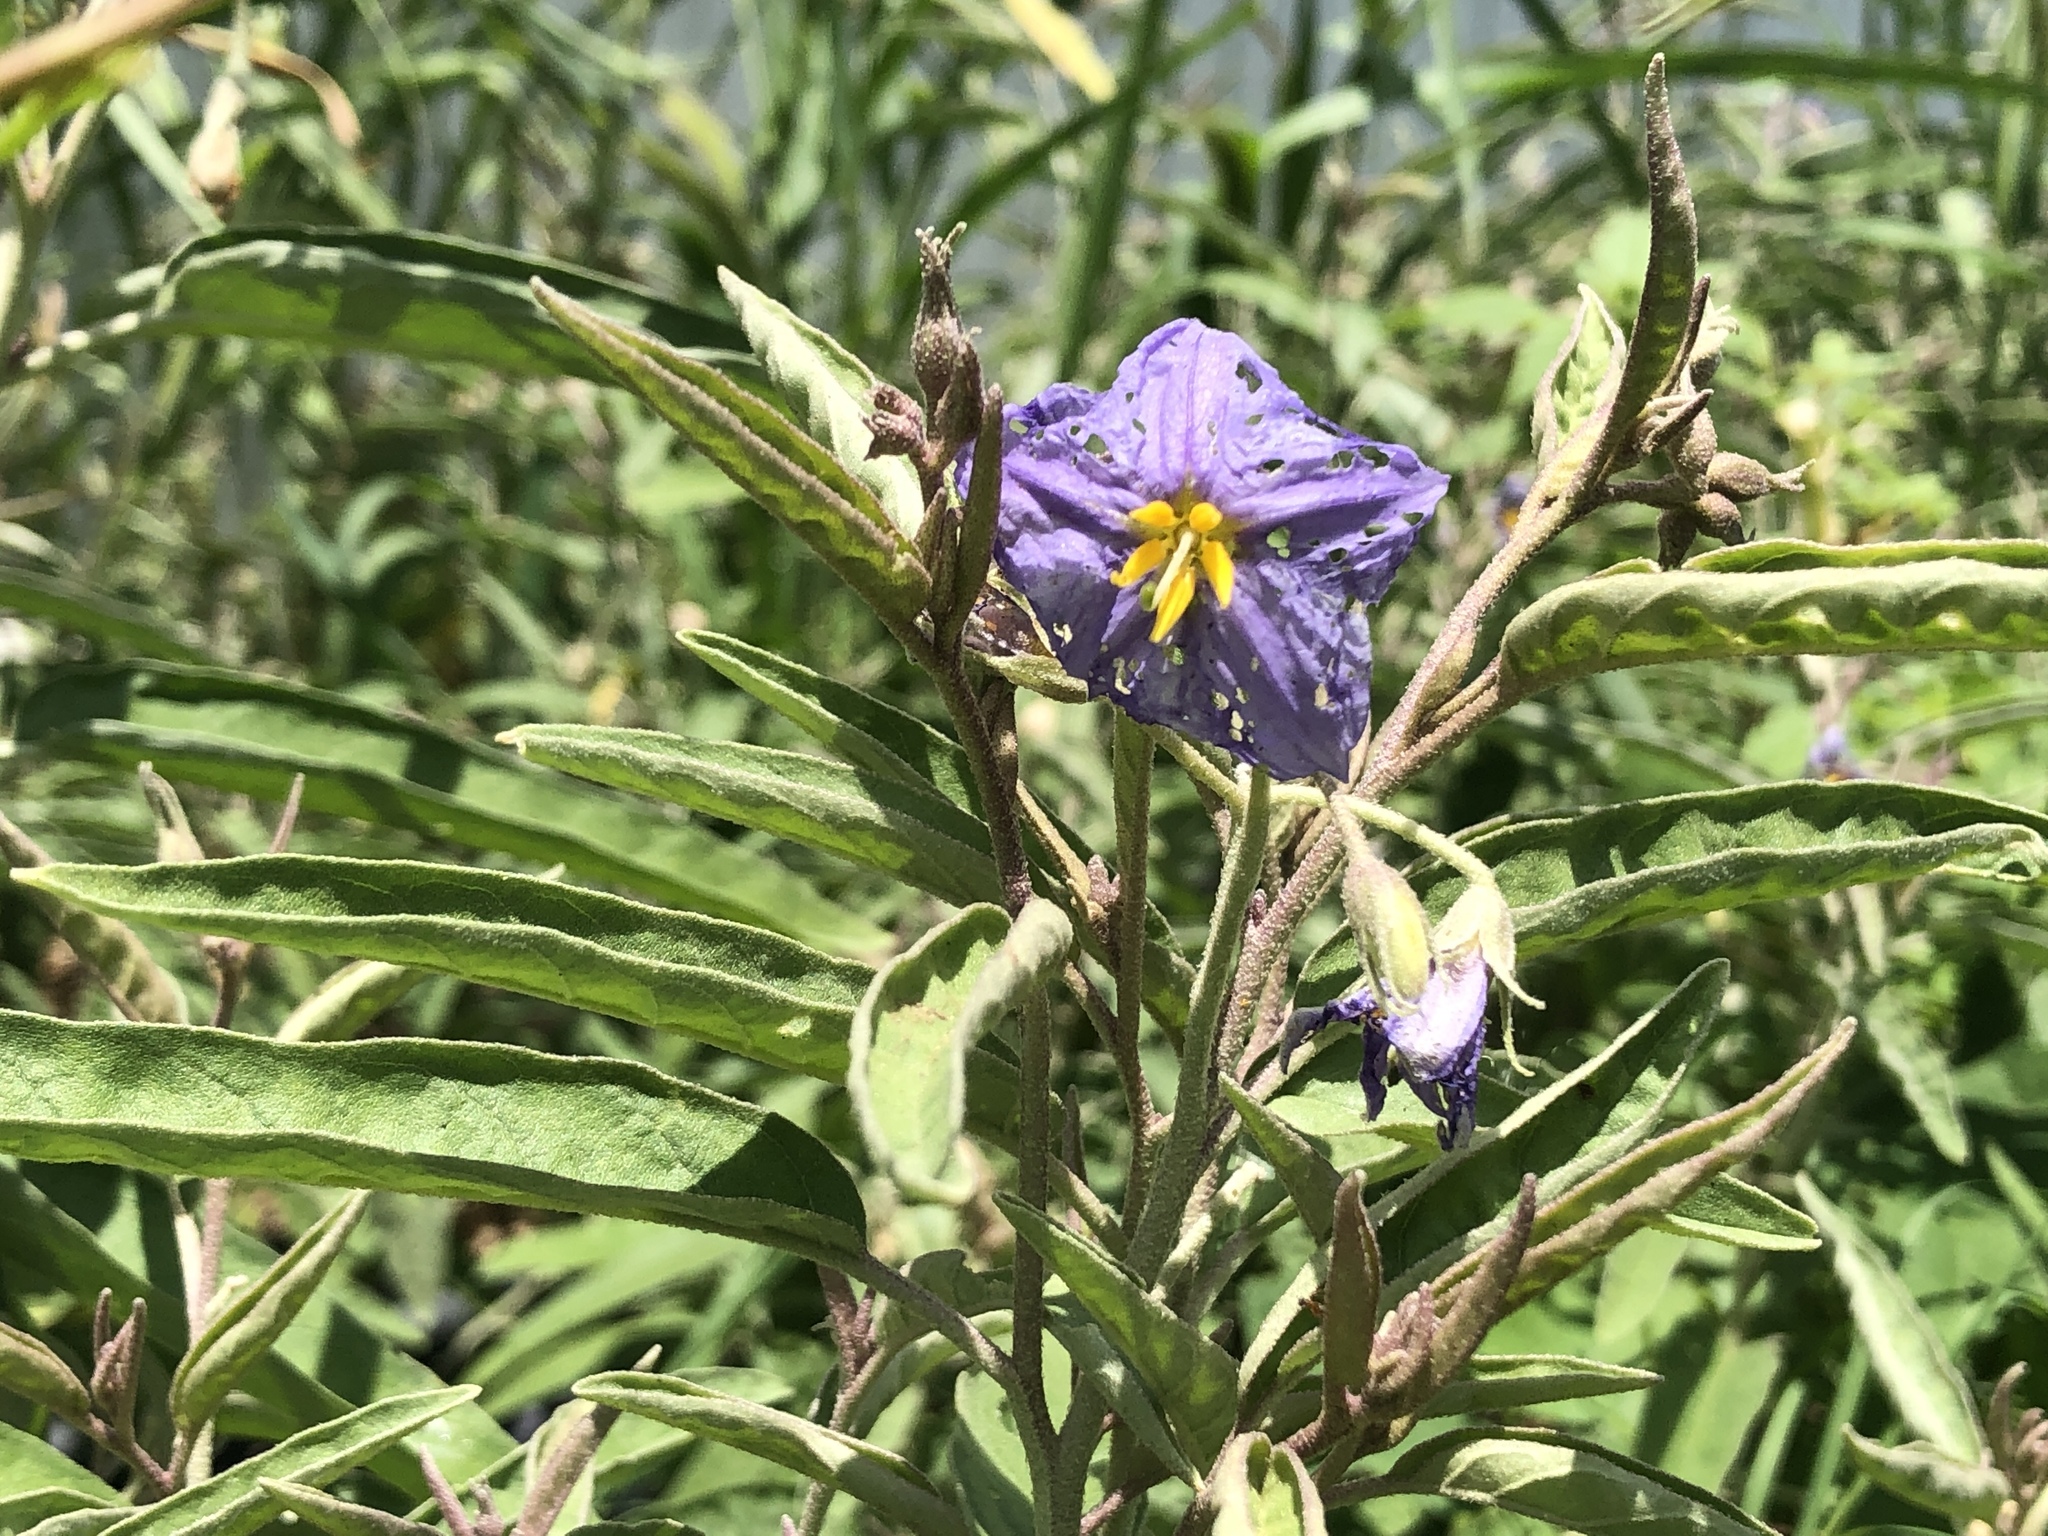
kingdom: Plantae
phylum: Tracheophyta
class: Magnoliopsida
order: Solanales
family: Solanaceae
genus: Solanum
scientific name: Solanum elaeagnifolium
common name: Silverleaf nightshade
